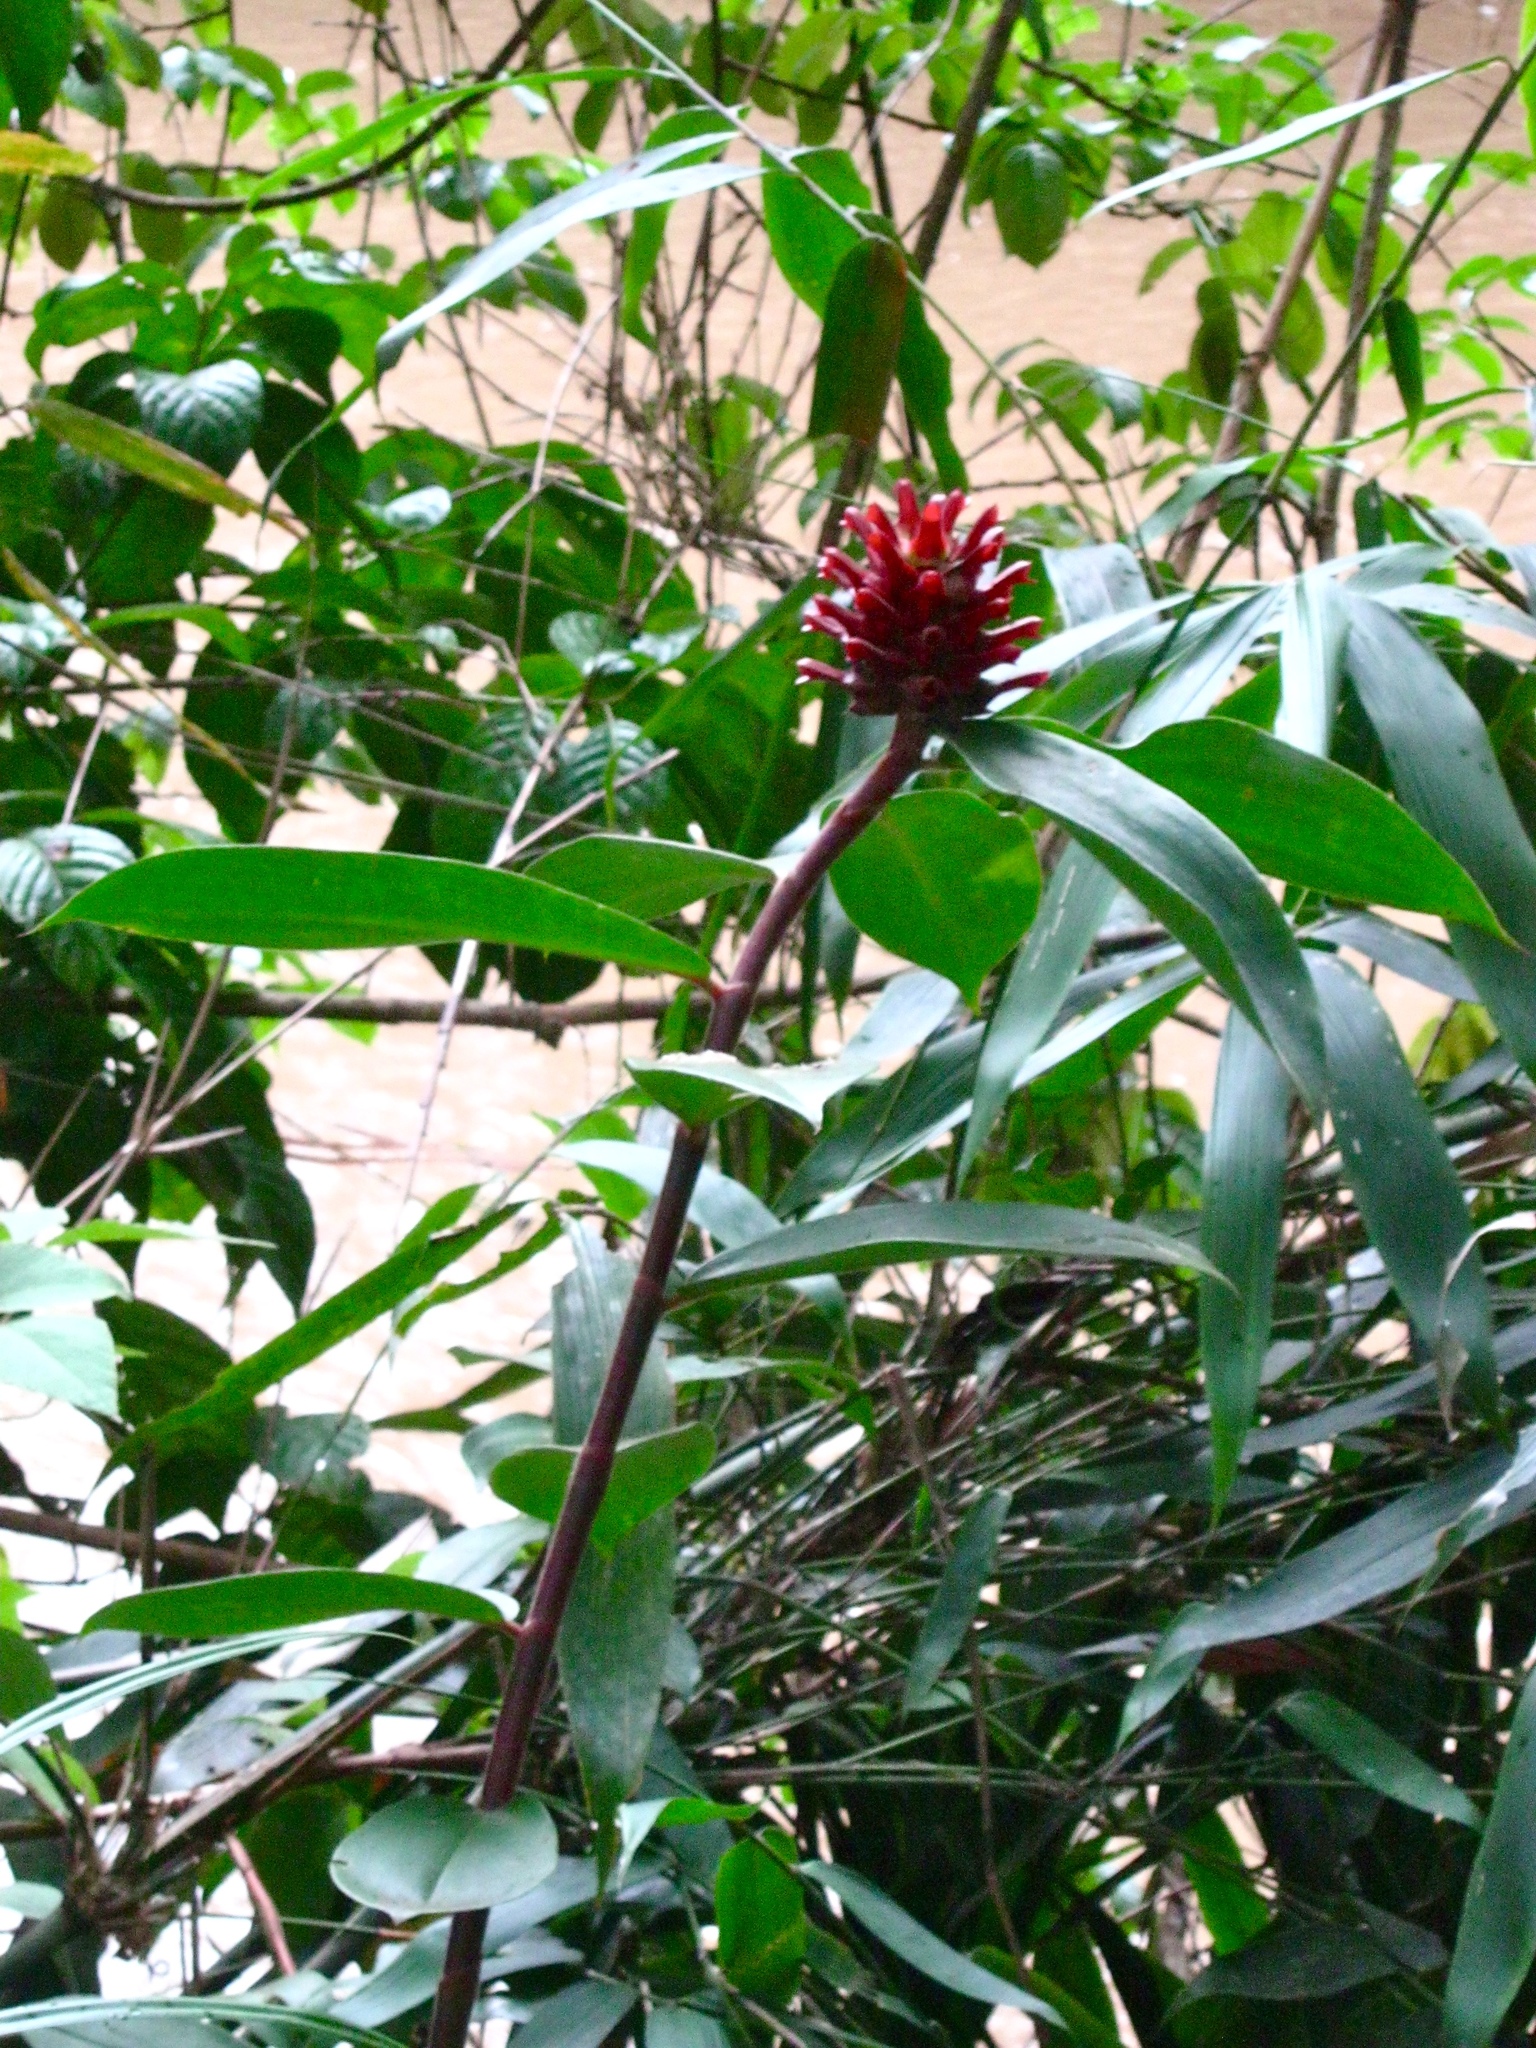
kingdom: Plantae
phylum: Tracheophyta
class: Liliopsida
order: Zingiberales
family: Costaceae
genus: Hellenia
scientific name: Hellenia speciosa
